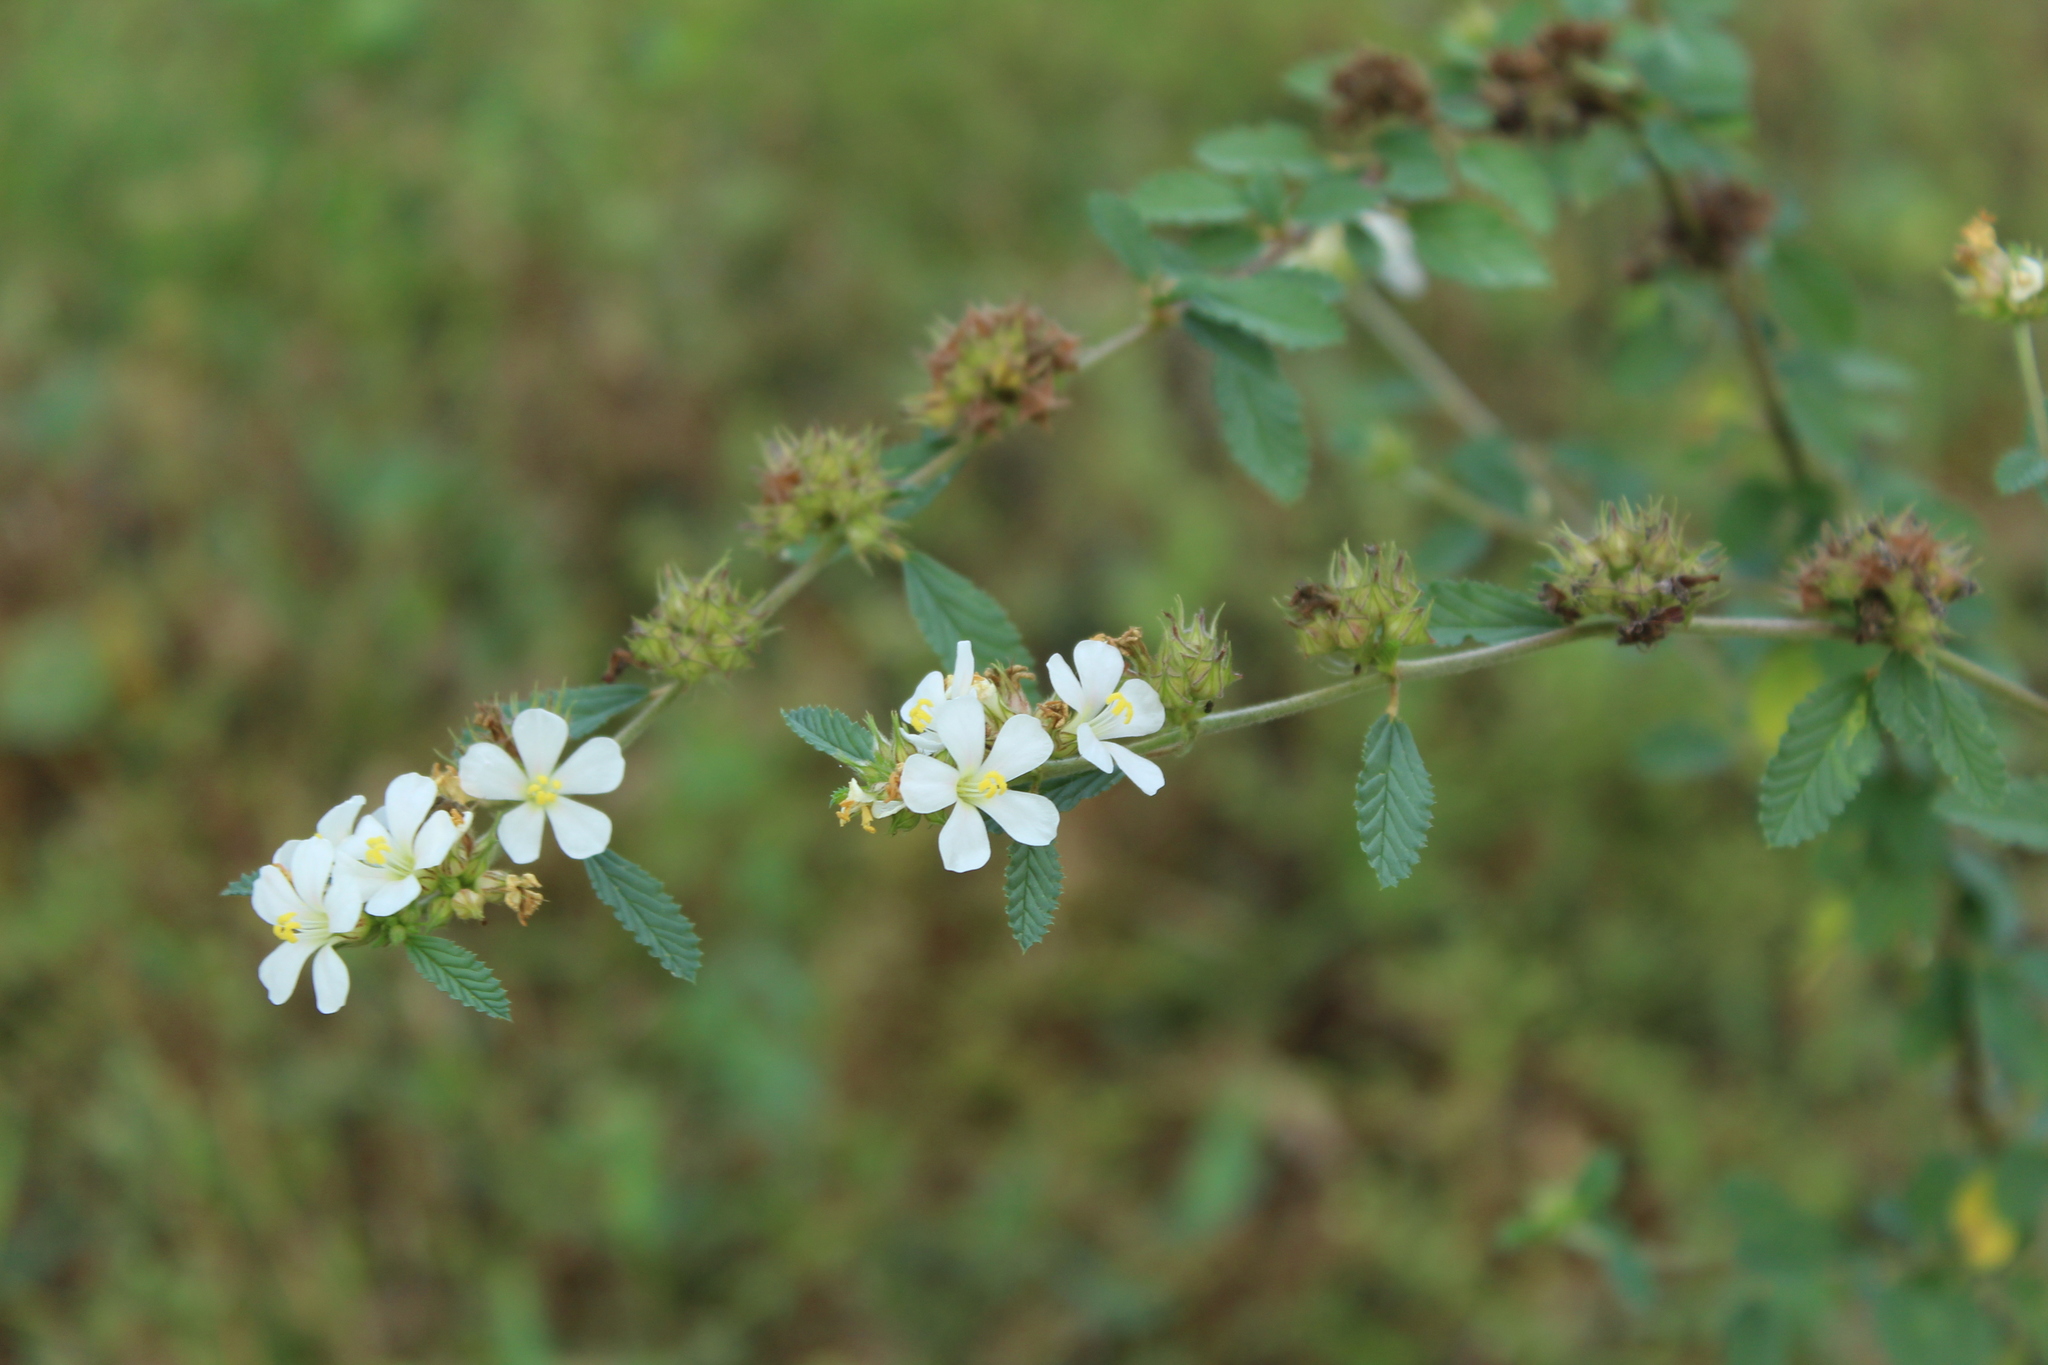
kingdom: Plantae
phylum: Tracheophyta
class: Magnoliopsida
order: Malvales
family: Malvaceae
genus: Melochia
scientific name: Melochia parvifolia
